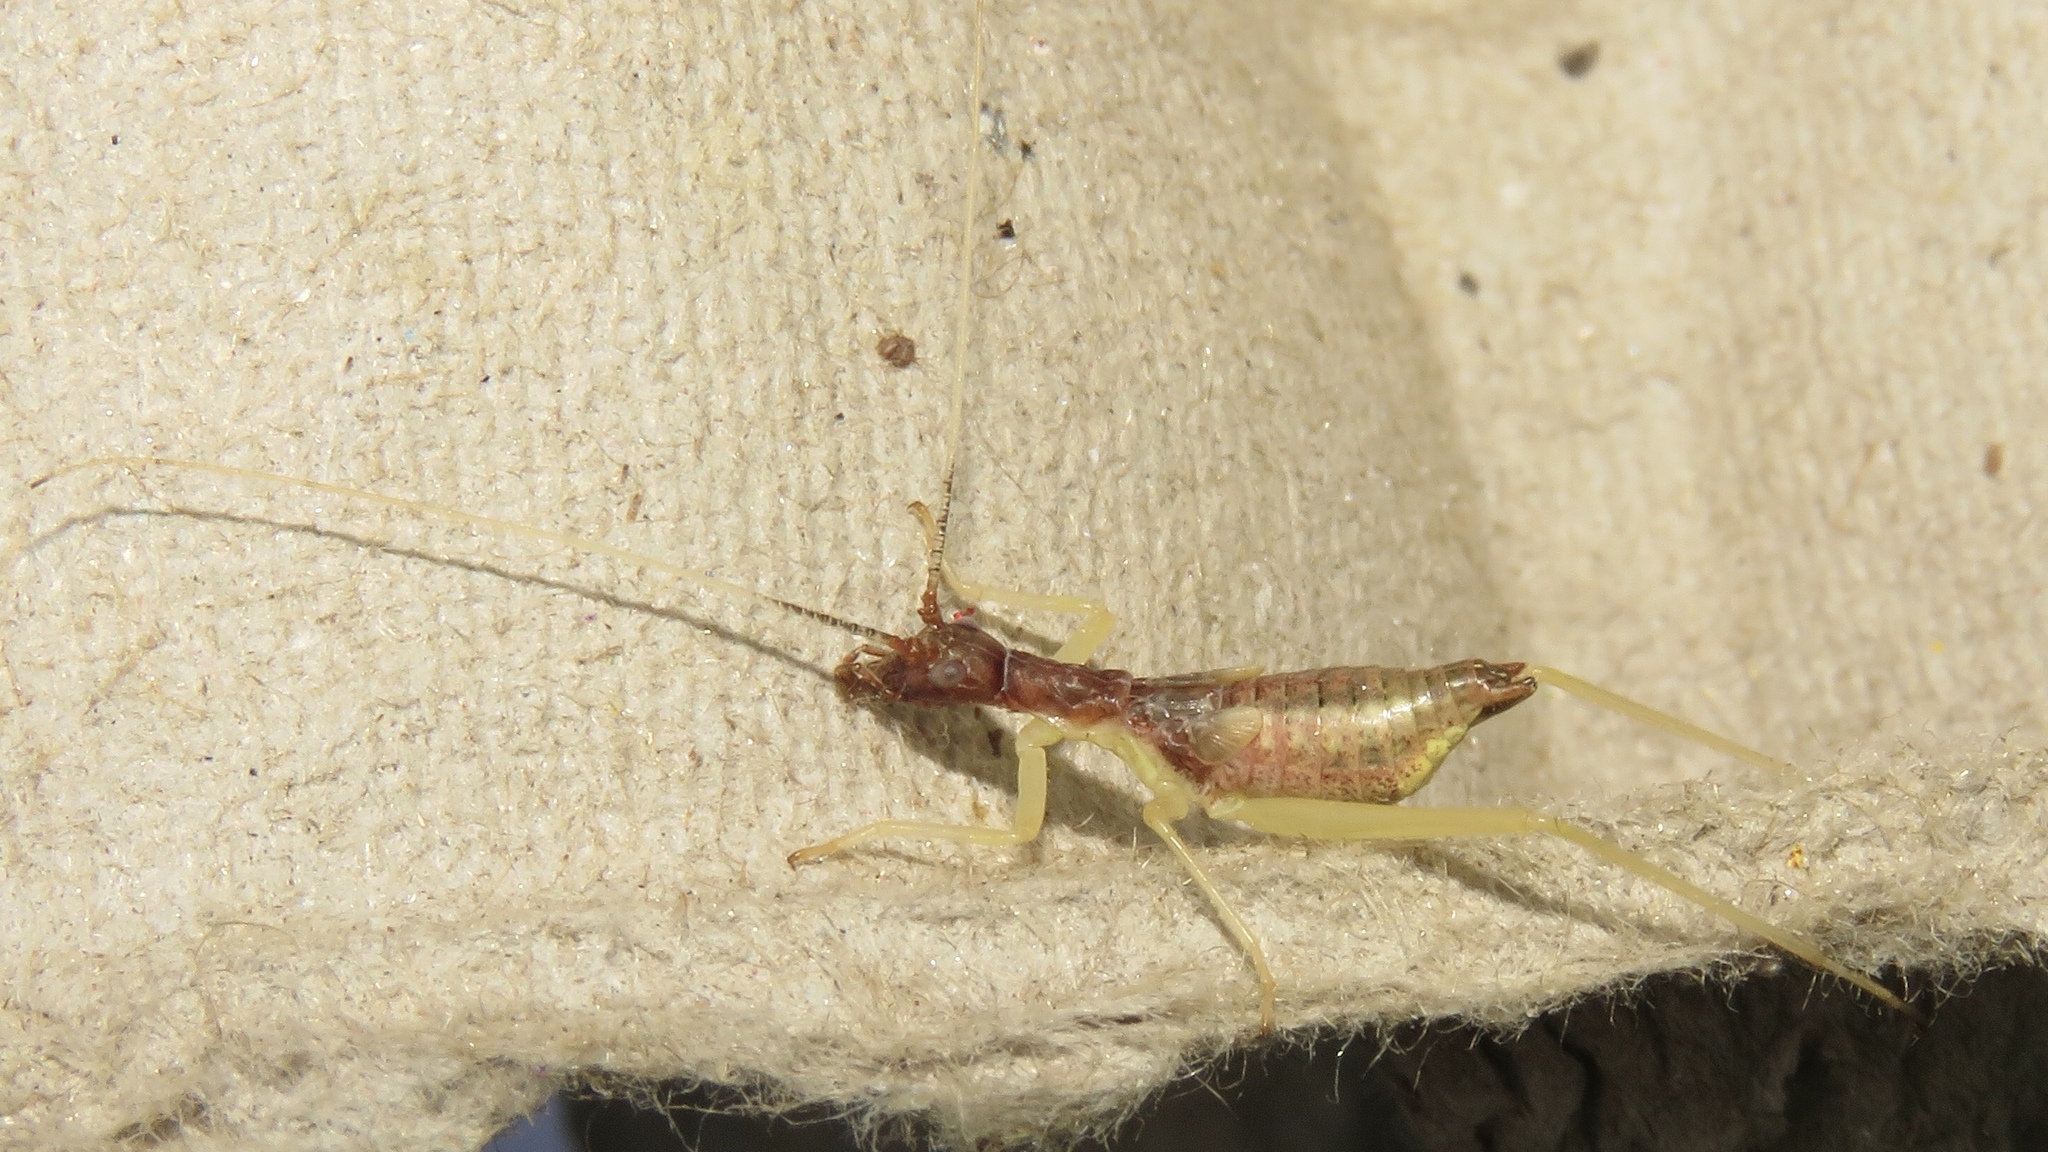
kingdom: Animalia
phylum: Arthropoda
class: Insecta
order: Orthoptera
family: Gryllidae
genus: Neoxabea
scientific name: Neoxabea bipunctata
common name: Two-spotted tree cricket
